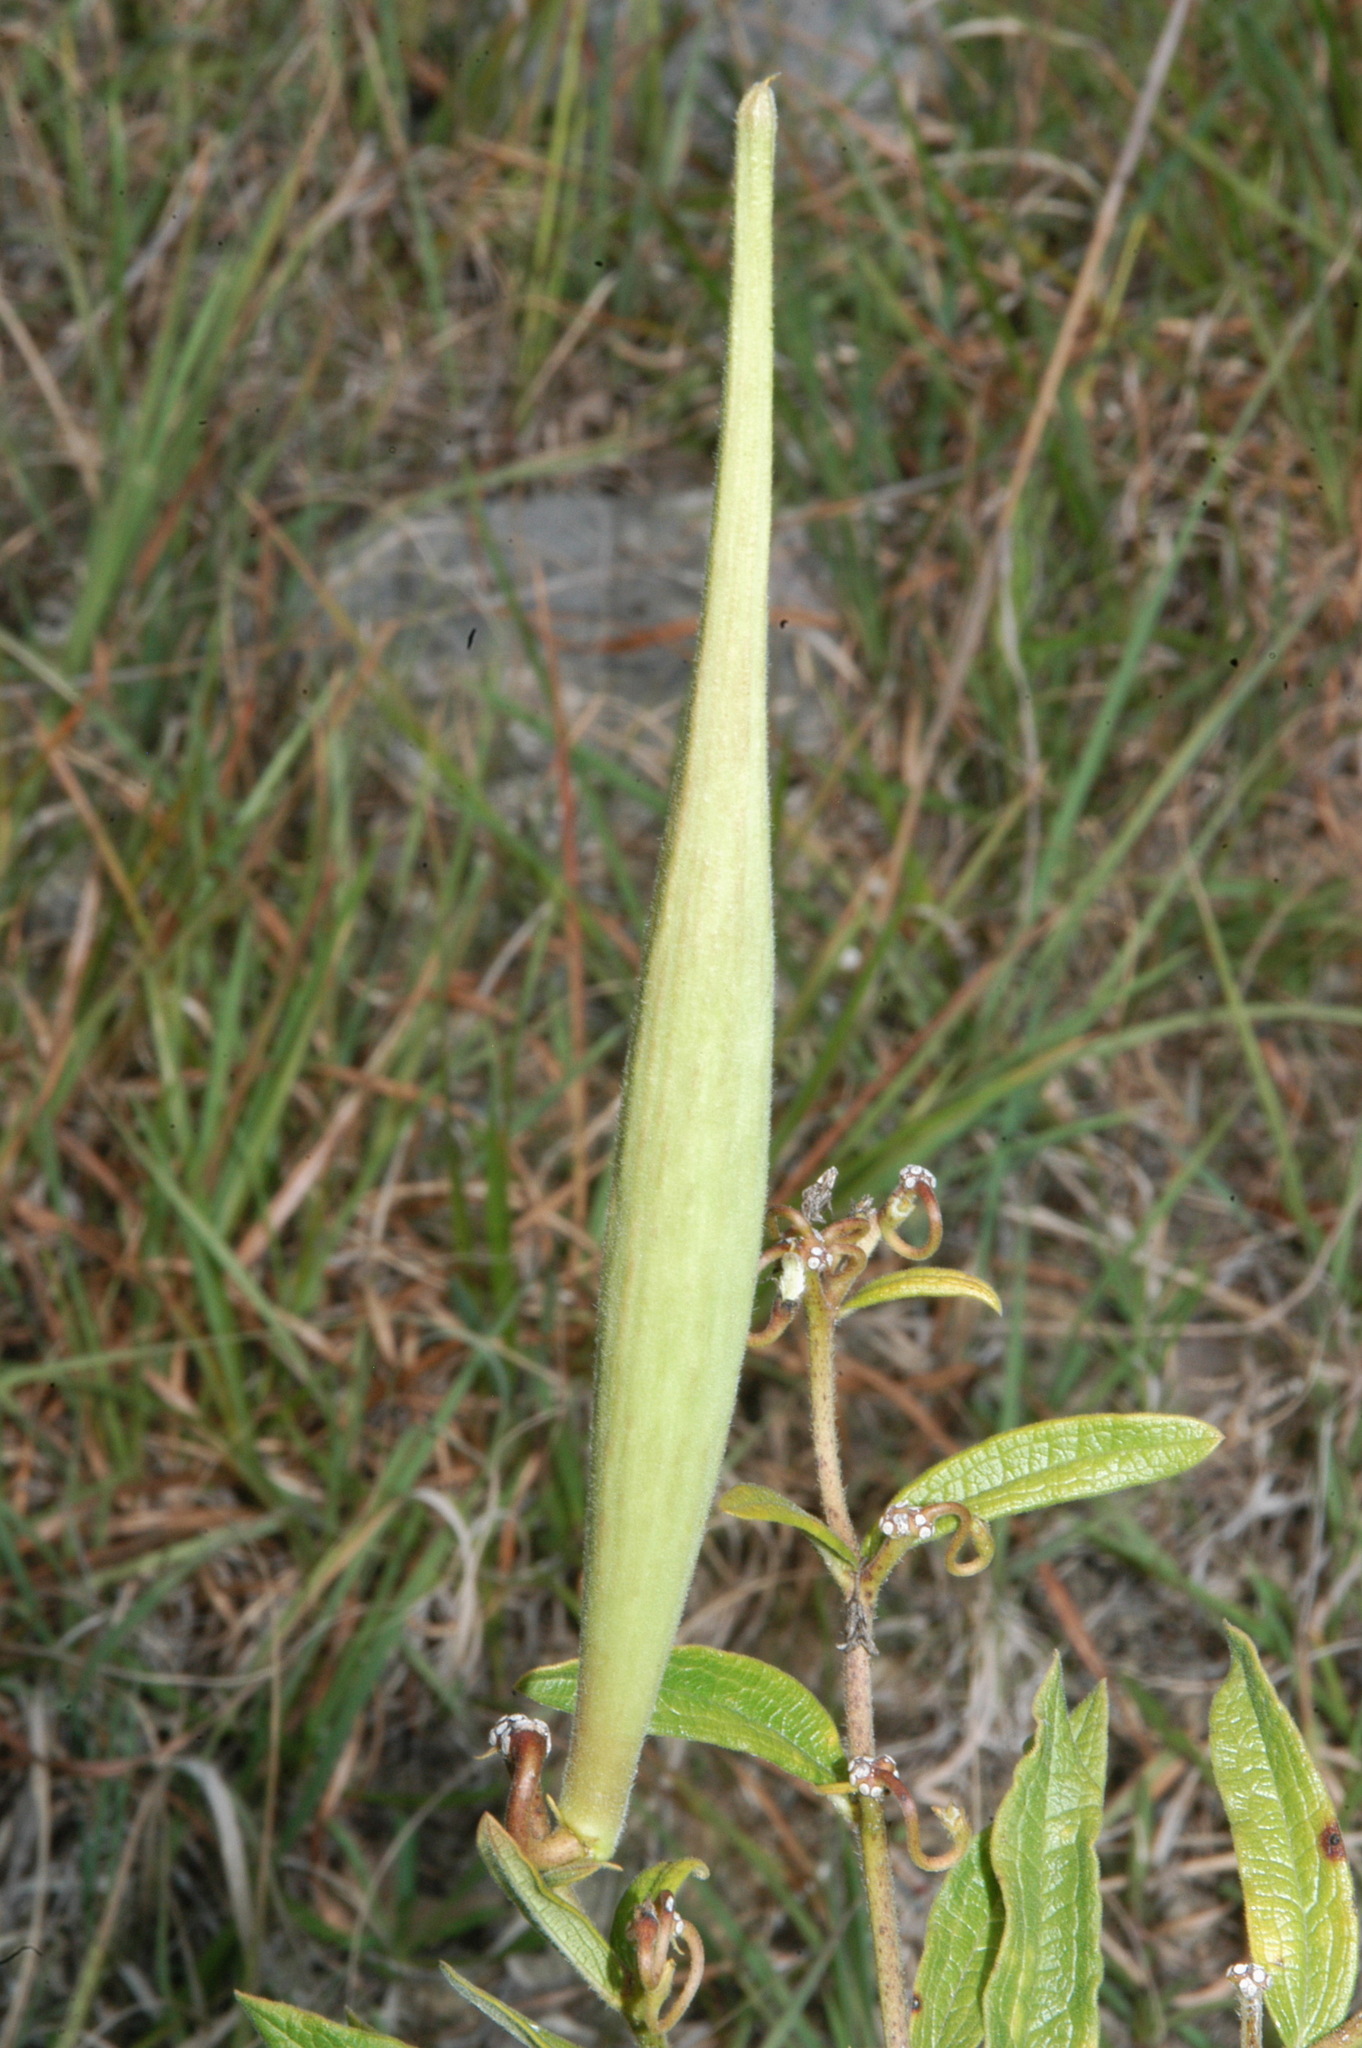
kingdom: Plantae
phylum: Tracheophyta
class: Magnoliopsida
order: Gentianales
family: Apocynaceae
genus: Asclepias
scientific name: Asclepias viridiflora
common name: Green comet milkweed
